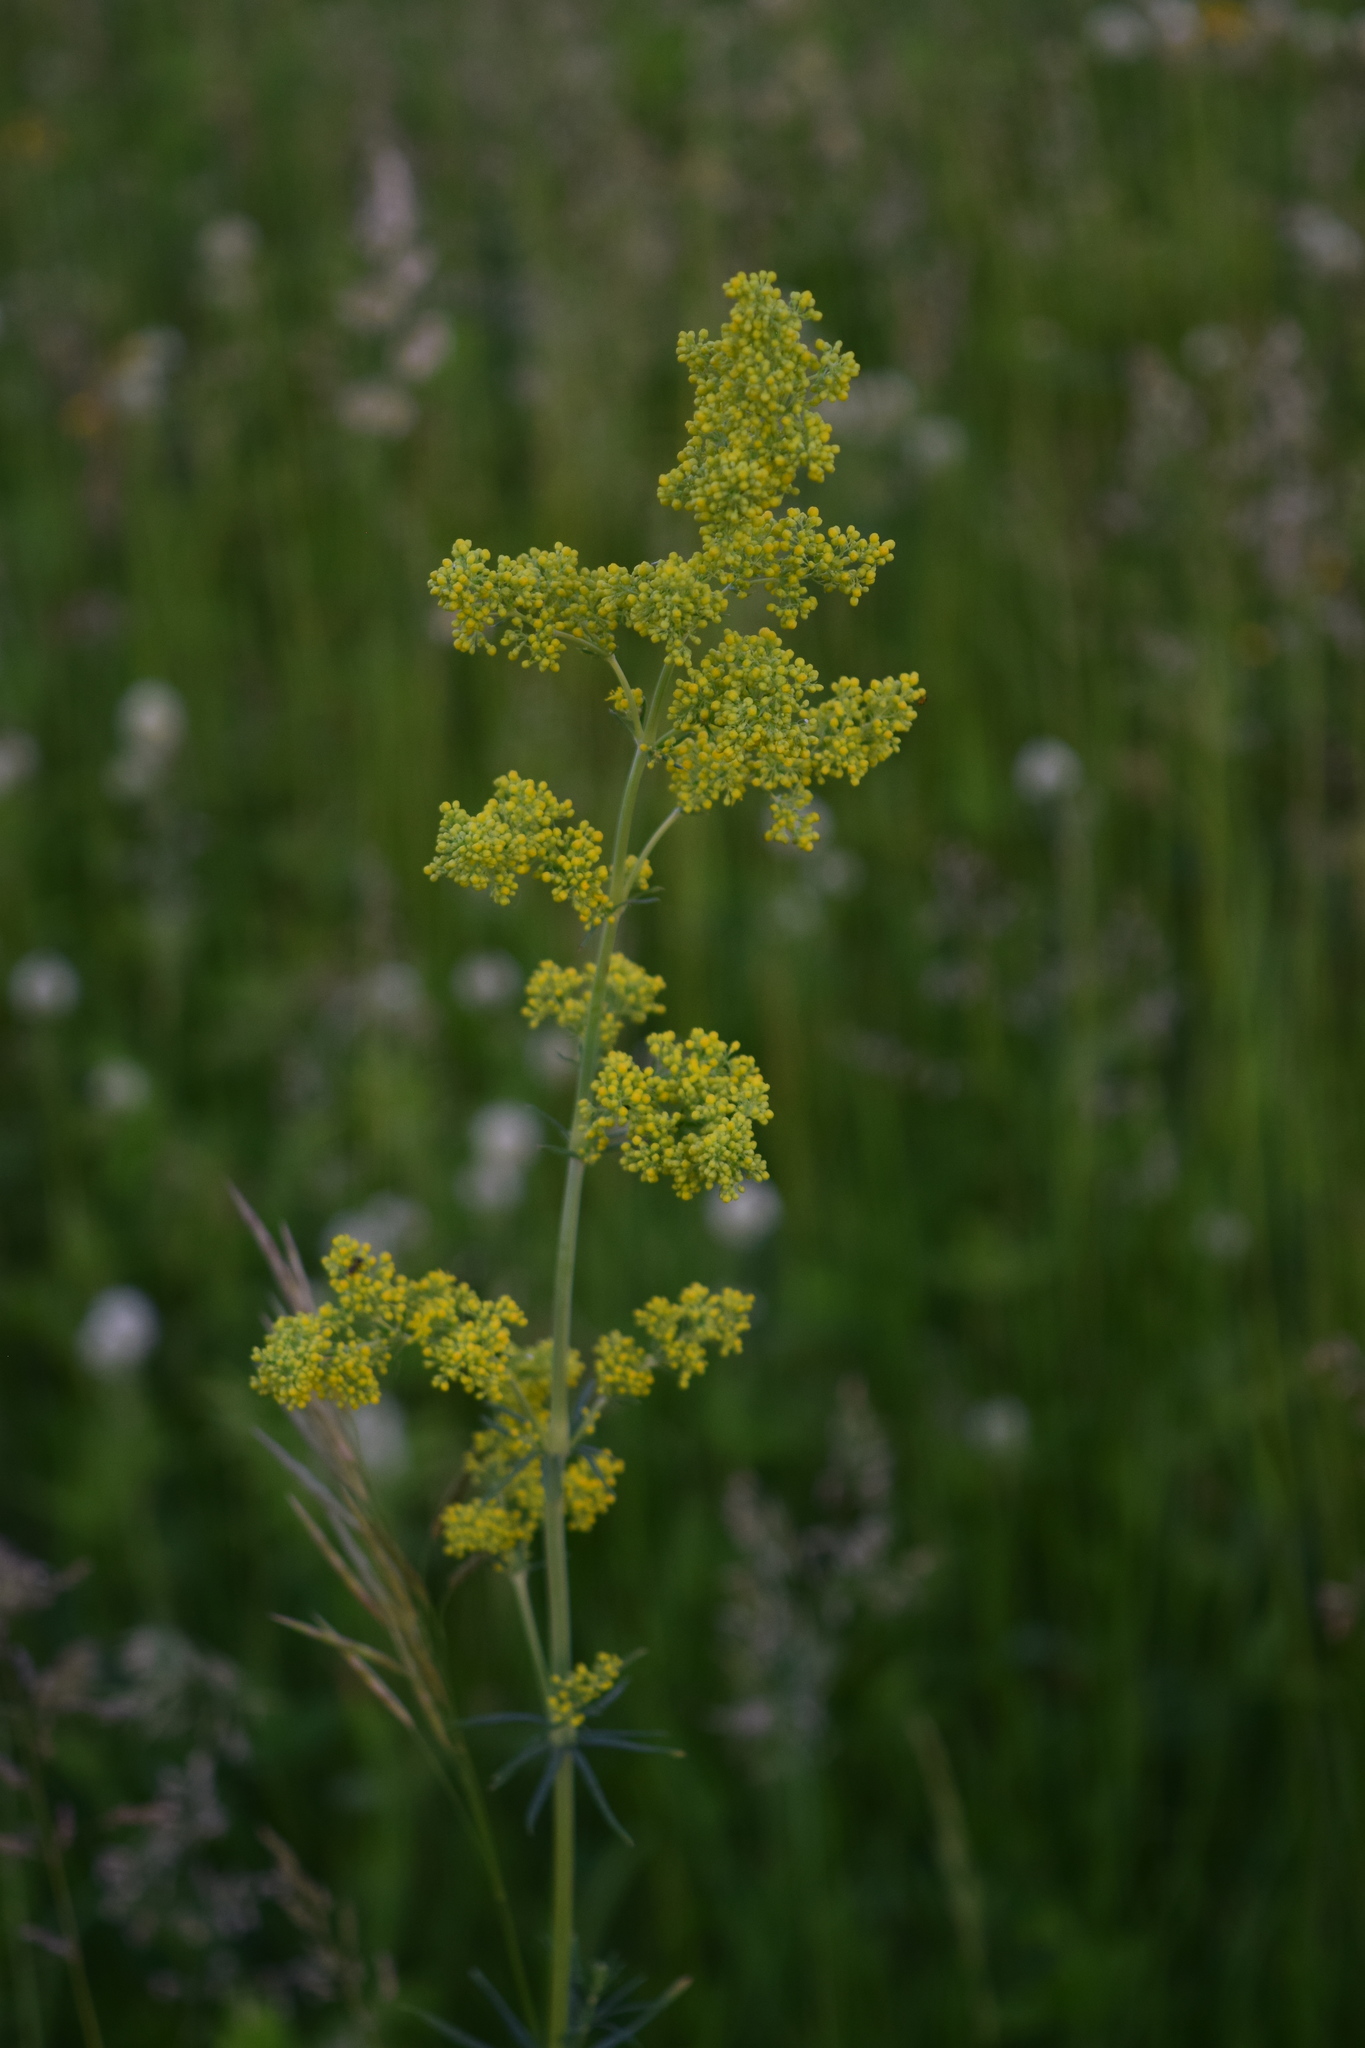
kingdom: Plantae
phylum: Tracheophyta
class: Magnoliopsida
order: Gentianales
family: Rubiaceae
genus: Galium
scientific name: Galium verum
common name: Lady's bedstraw
